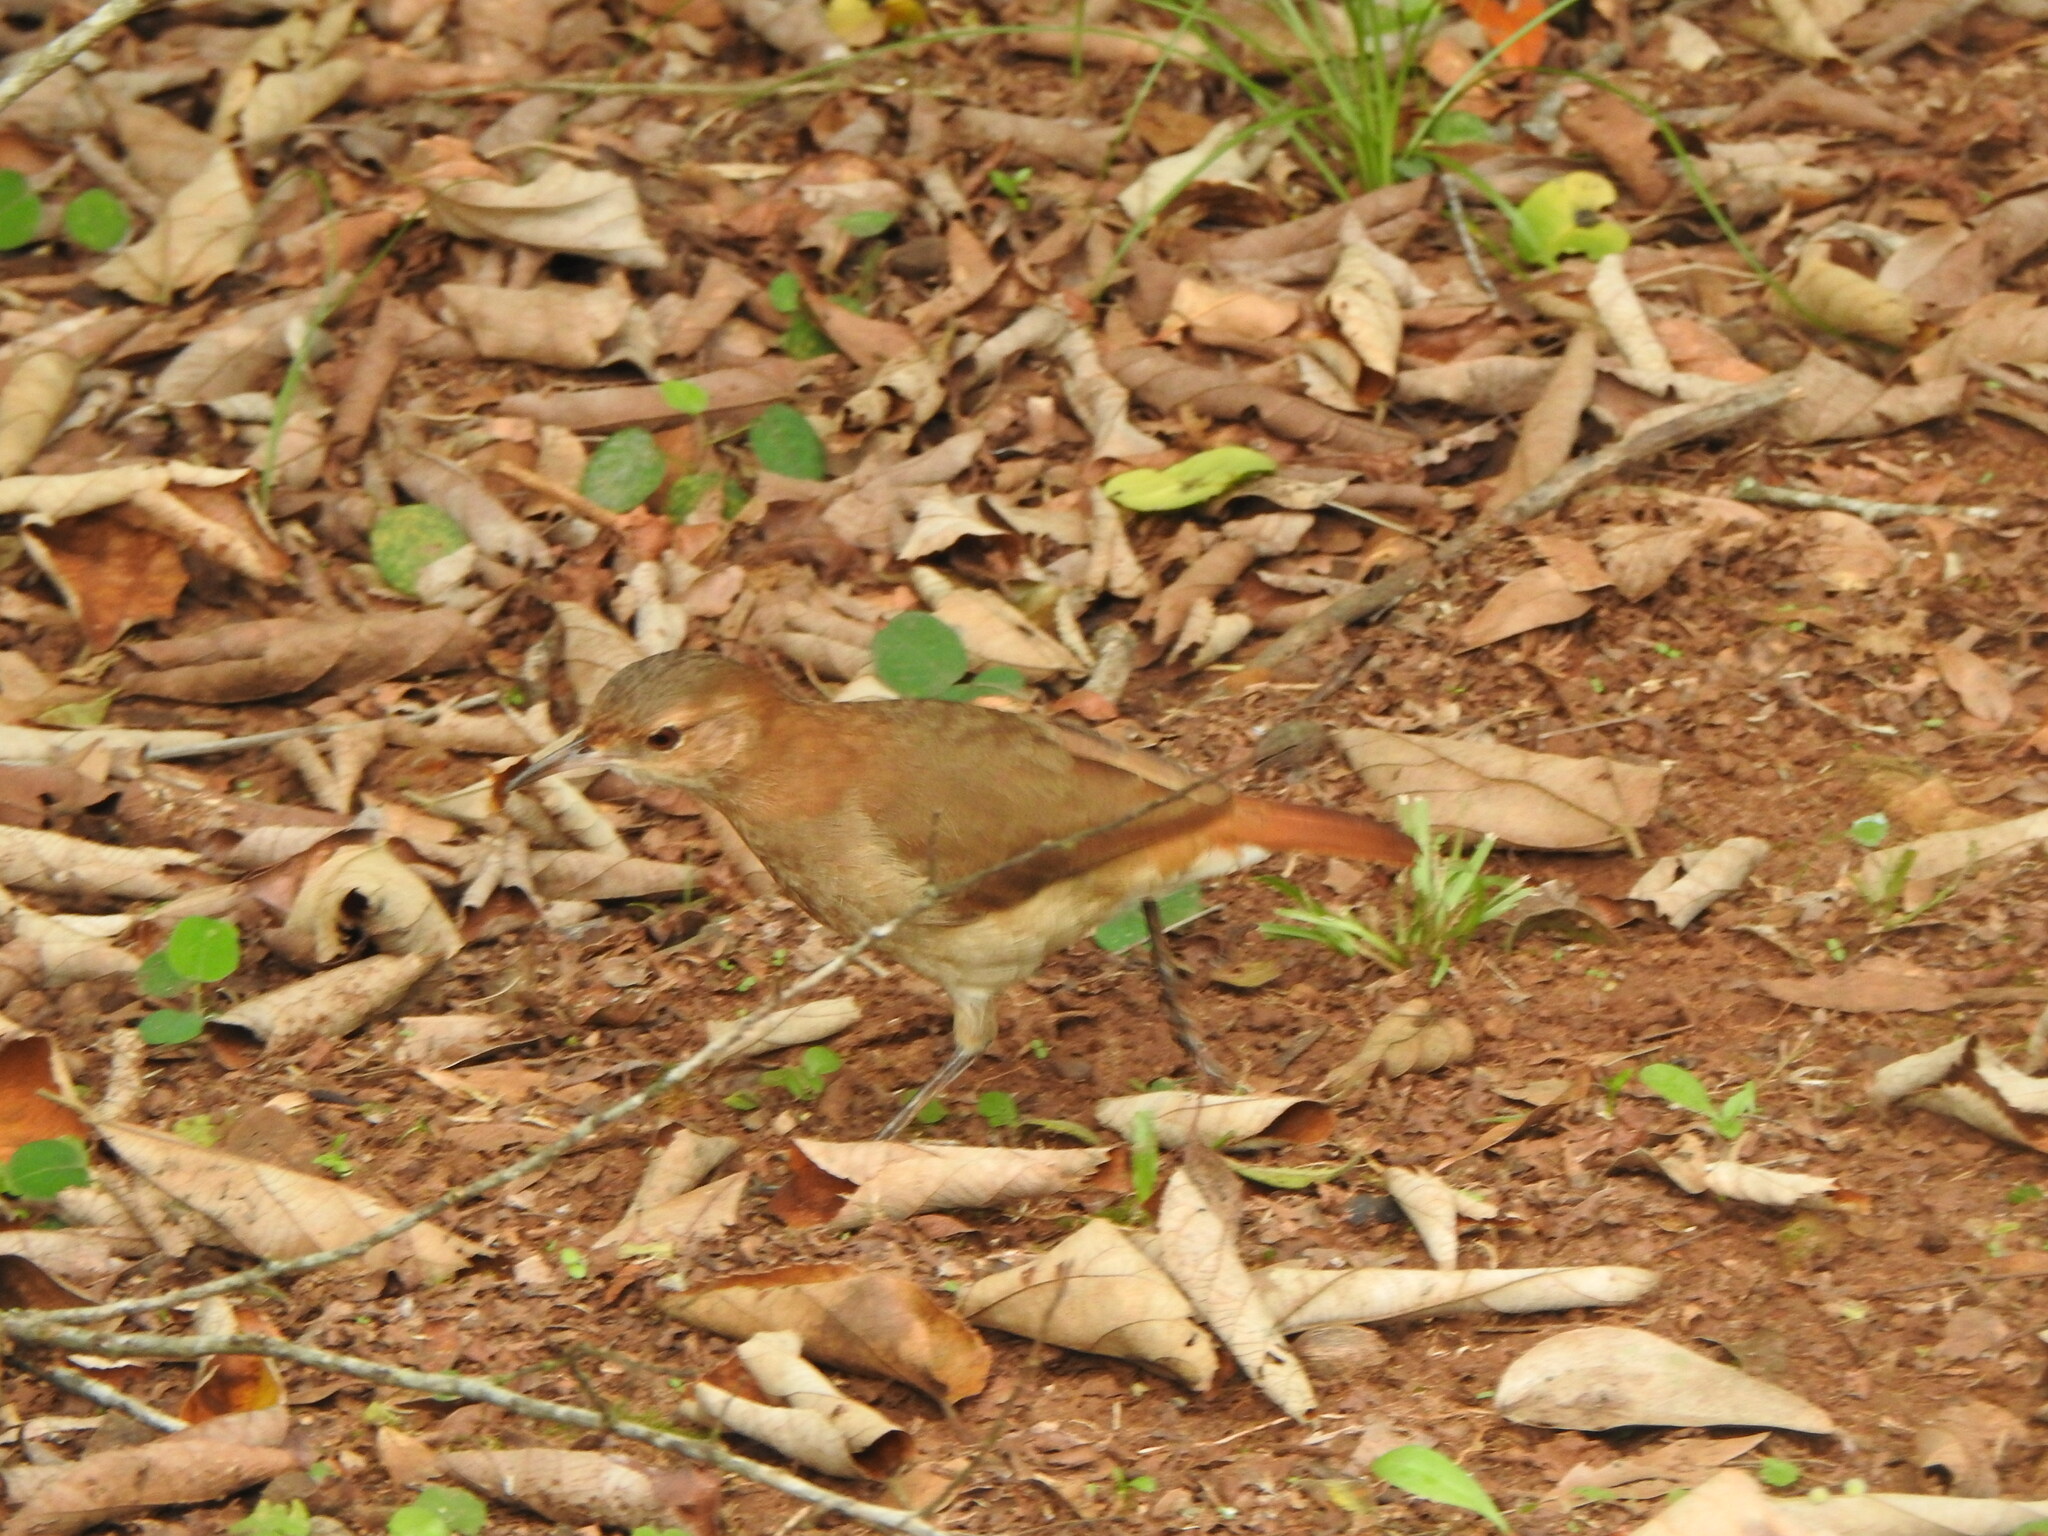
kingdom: Animalia
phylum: Chordata
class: Aves
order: Passeriformes
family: Furnariidae
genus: Furnarius
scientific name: Furnarius rufus
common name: Rufous hornero
